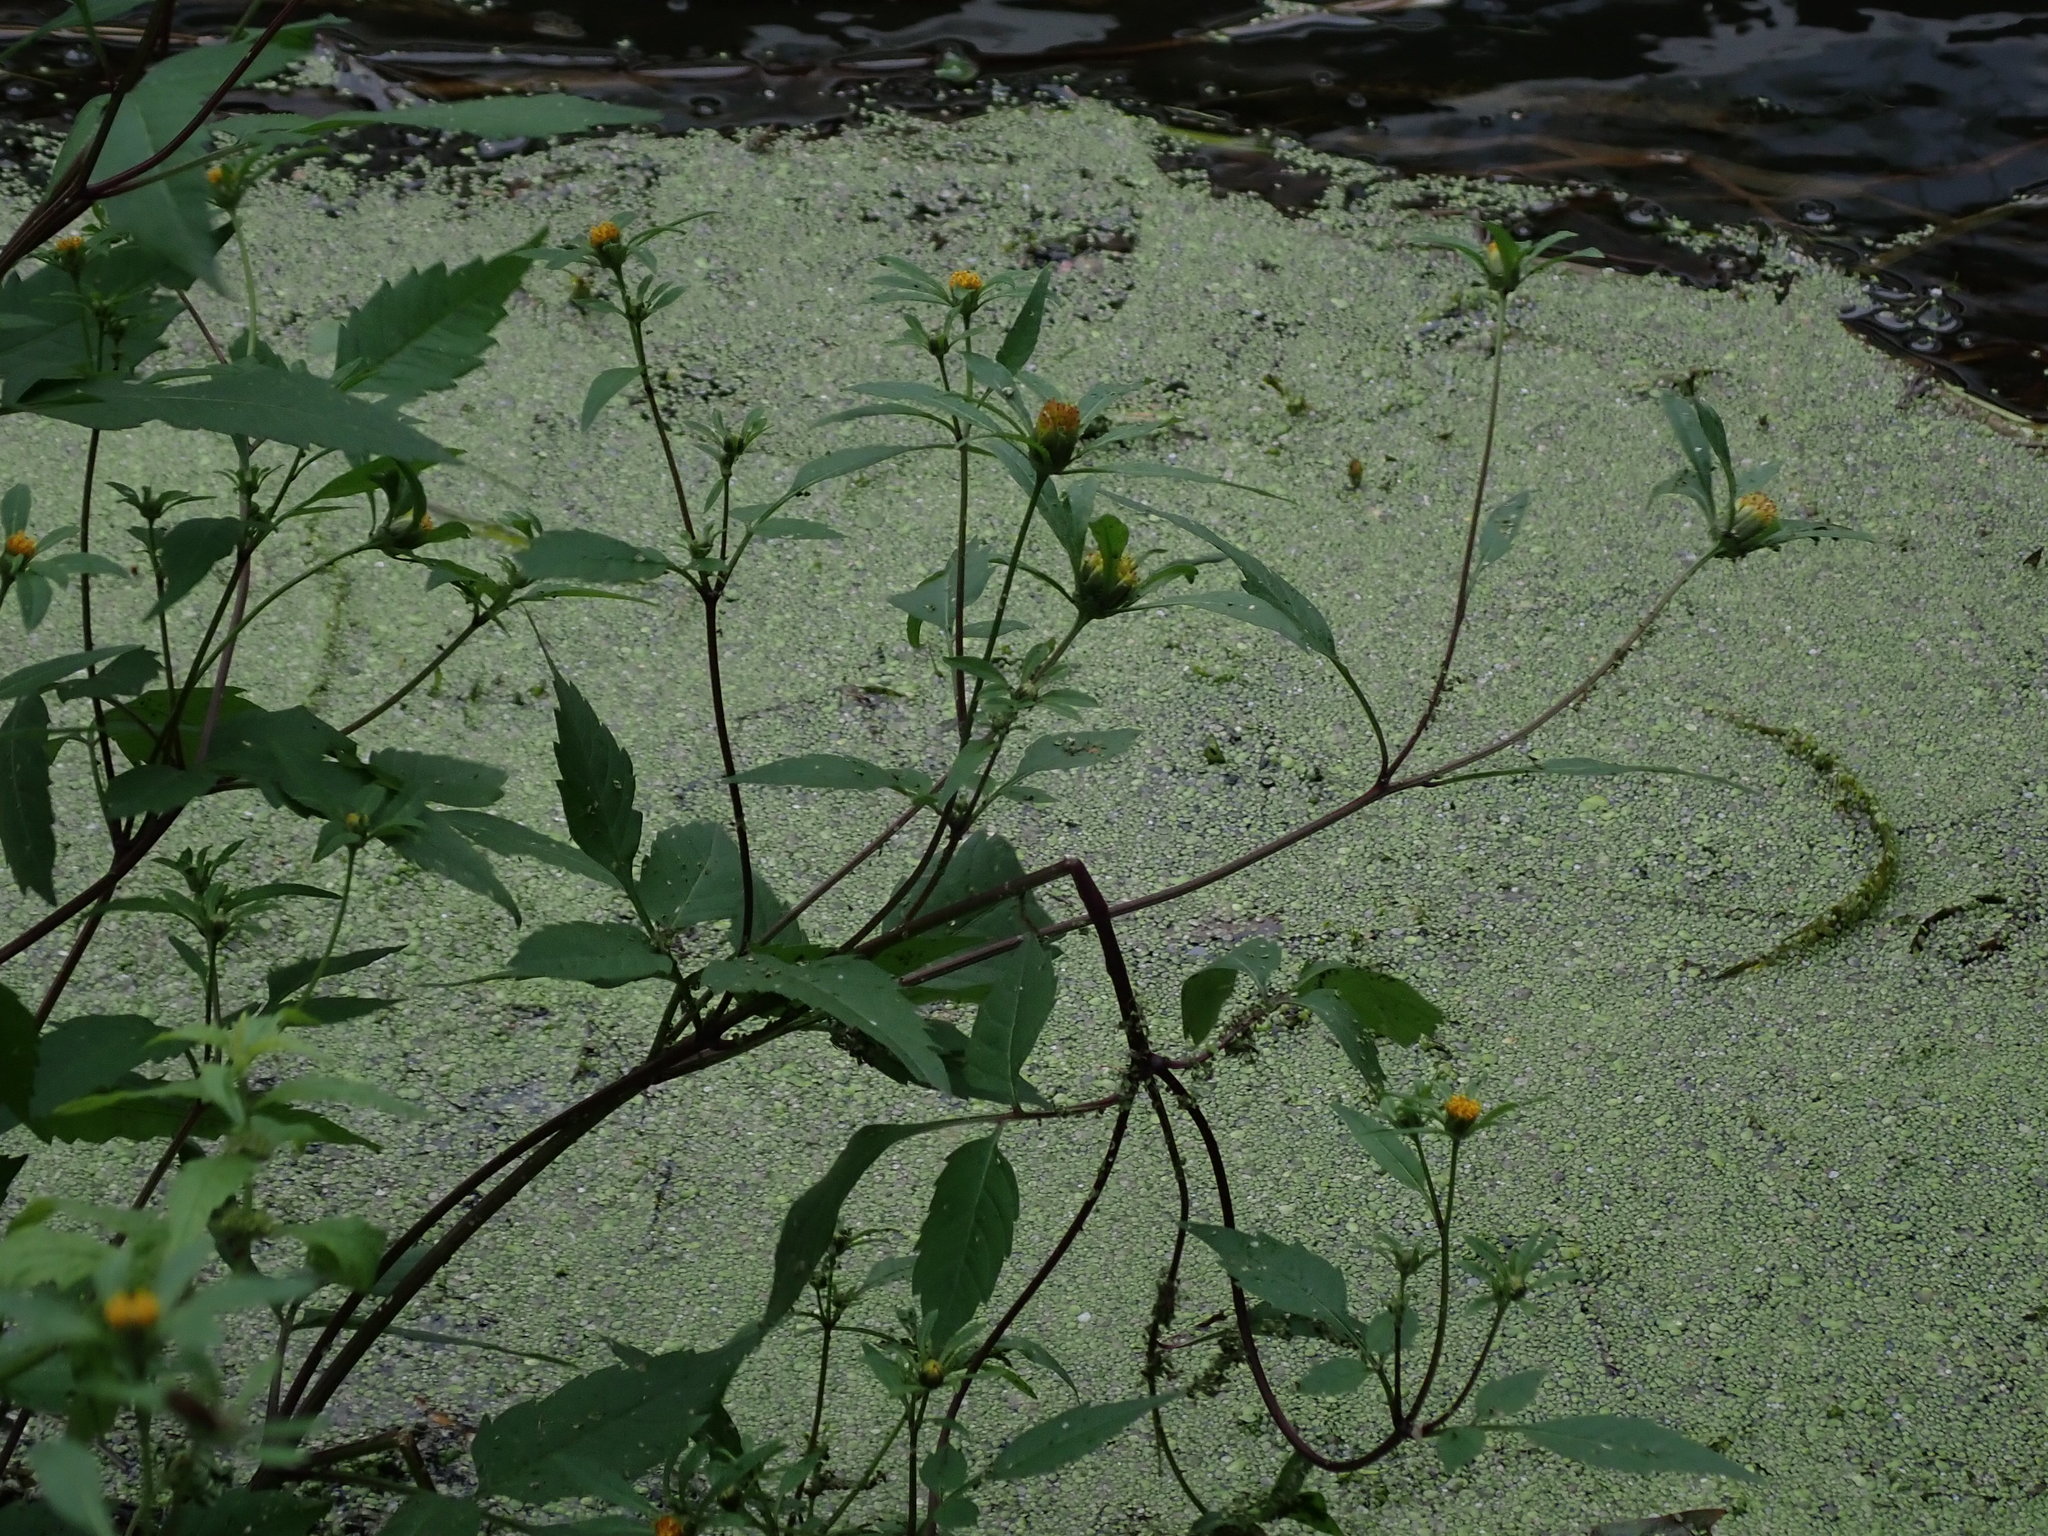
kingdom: Plantae
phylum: Tracheophyta
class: Magnoliopsida
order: Asterales
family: Asteraceae
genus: Bidens
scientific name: Bidens frondosa
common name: Beggarticks
